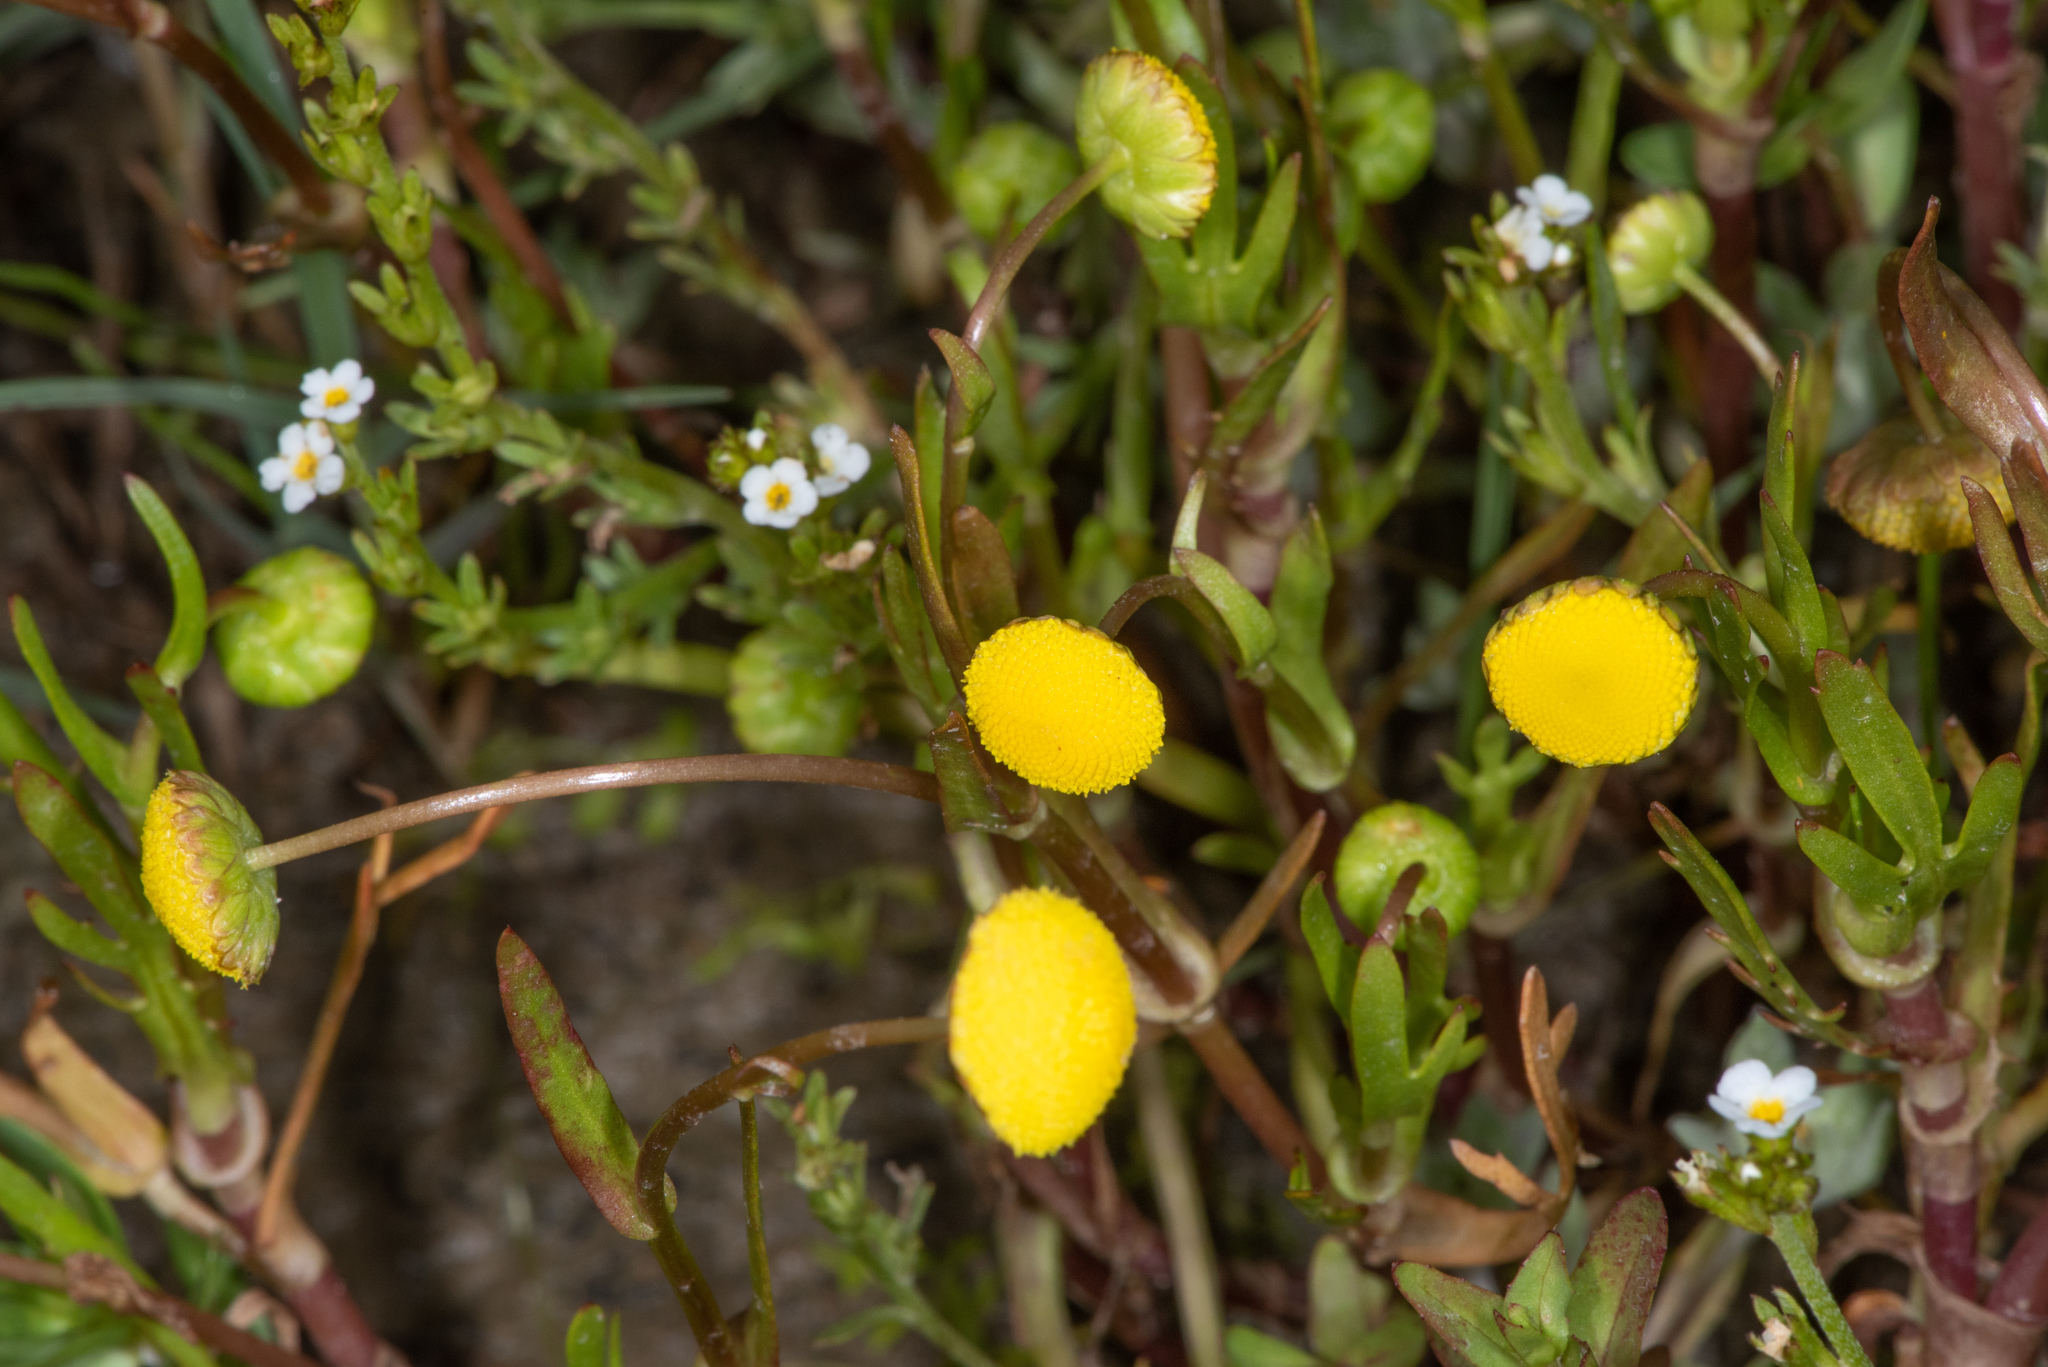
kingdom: Plantae
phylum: Tracheophyta
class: Magnoliopsida
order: Asterales
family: Asteraceae
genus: Cotula
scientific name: Cotula coronopifolia
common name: Buttonweed
